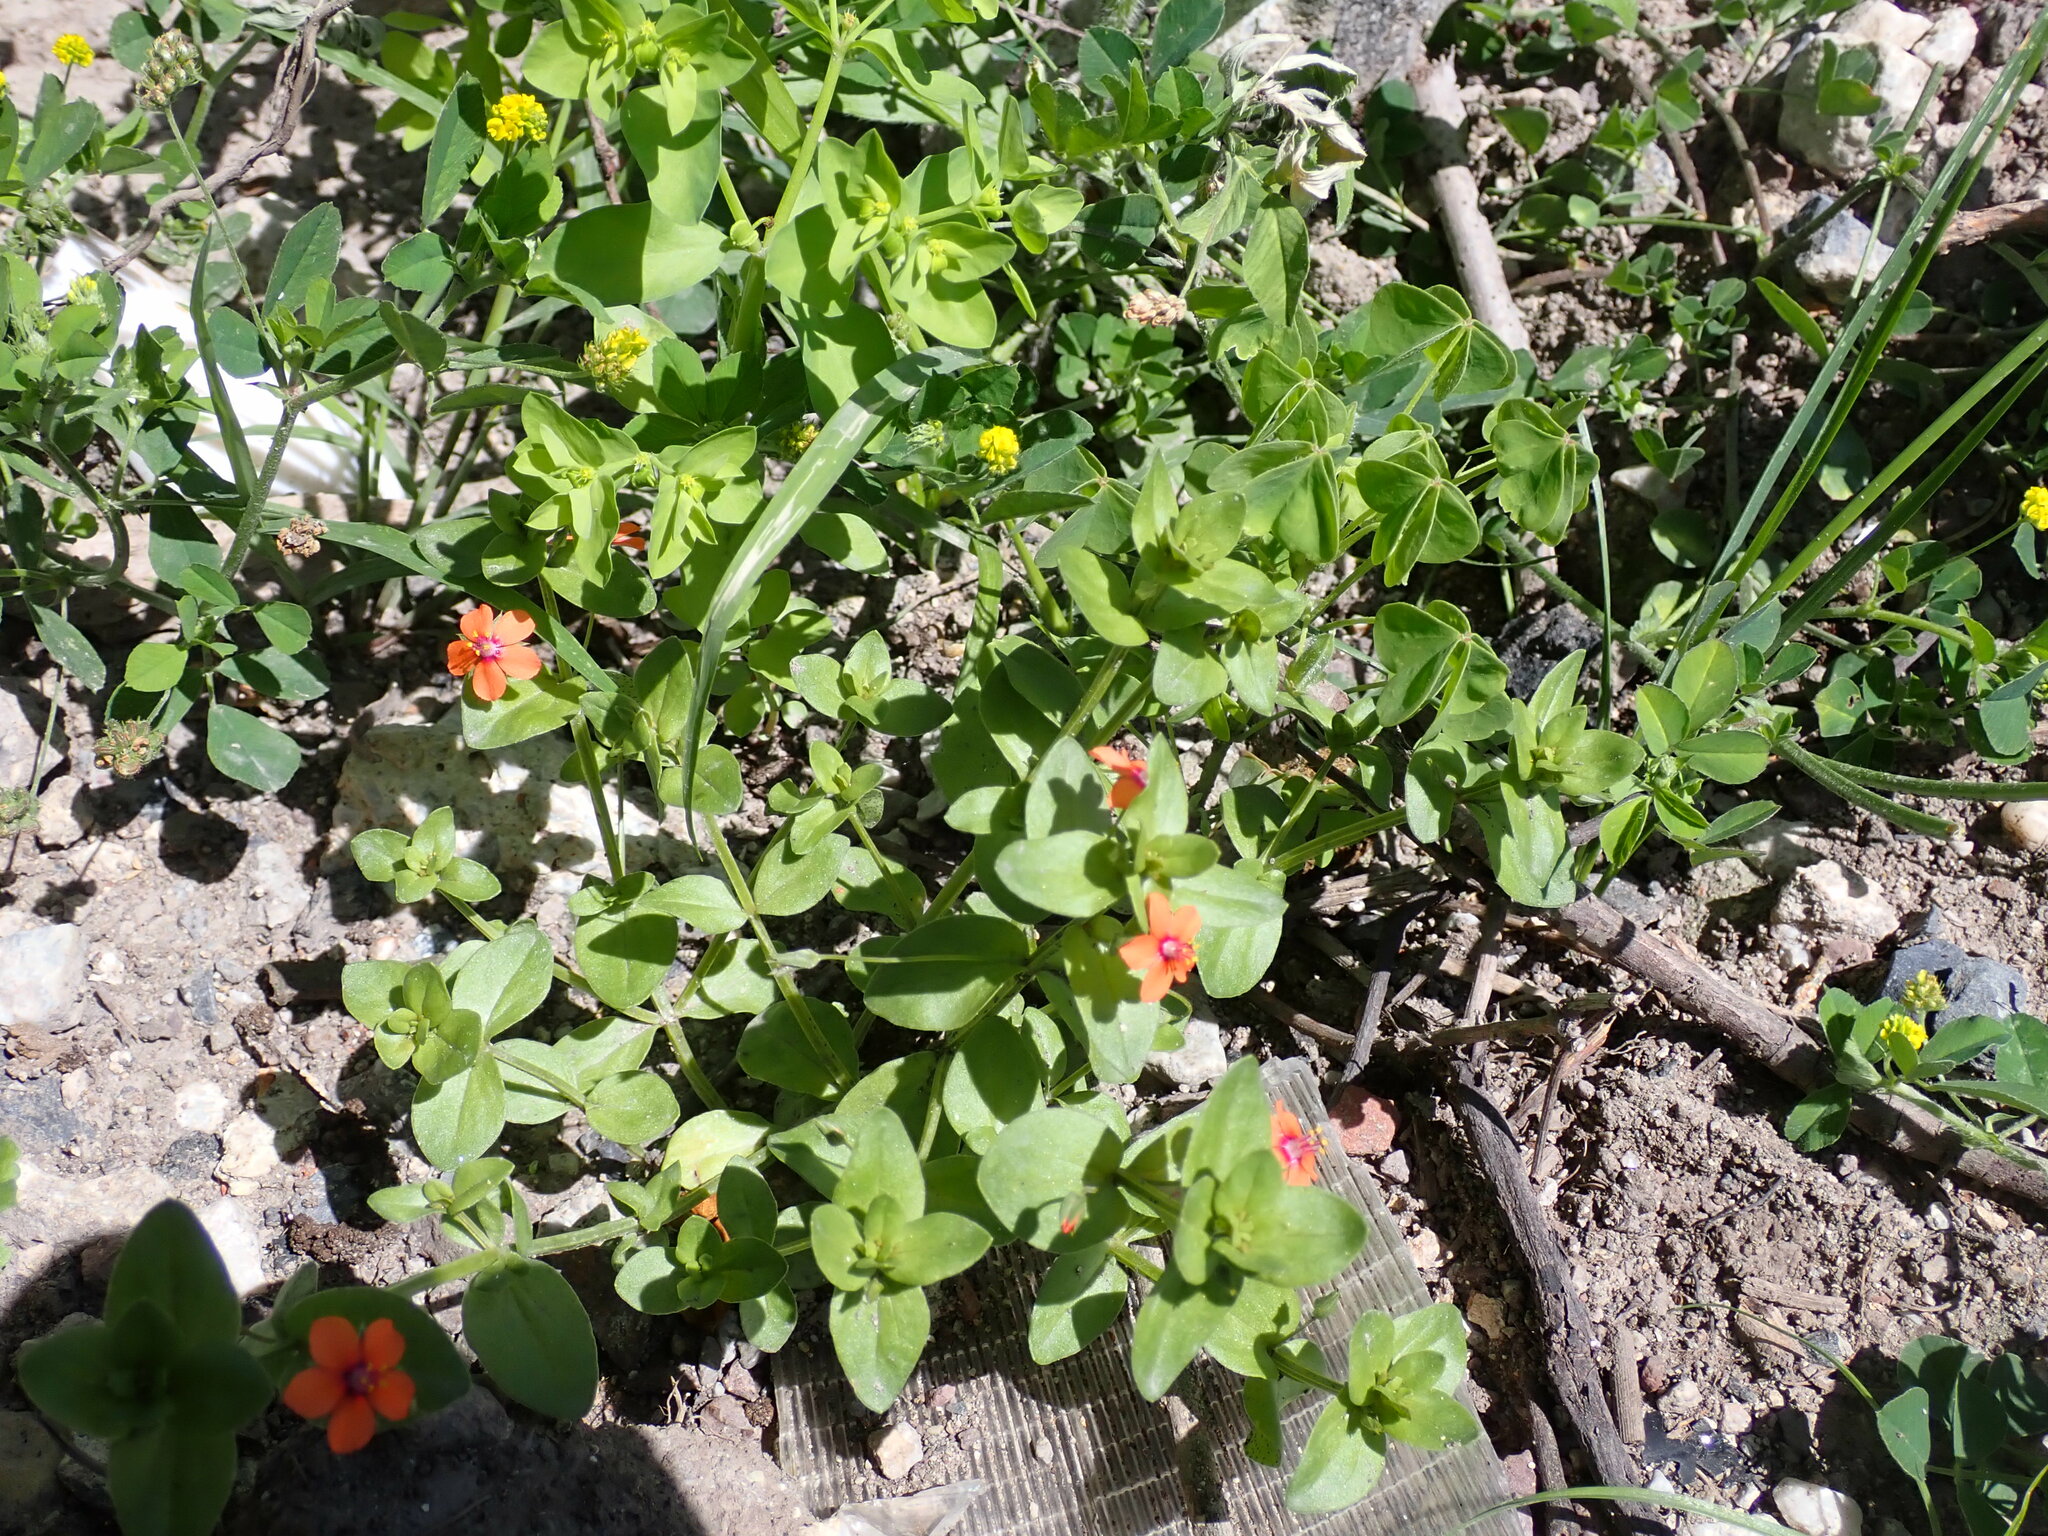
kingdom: Plantae
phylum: Tracheophyta
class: Magnoliopsida
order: Ericales
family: Primulaceae
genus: Lysimachia
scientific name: Lysimachia arvensis
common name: Scarlet pimpernel
